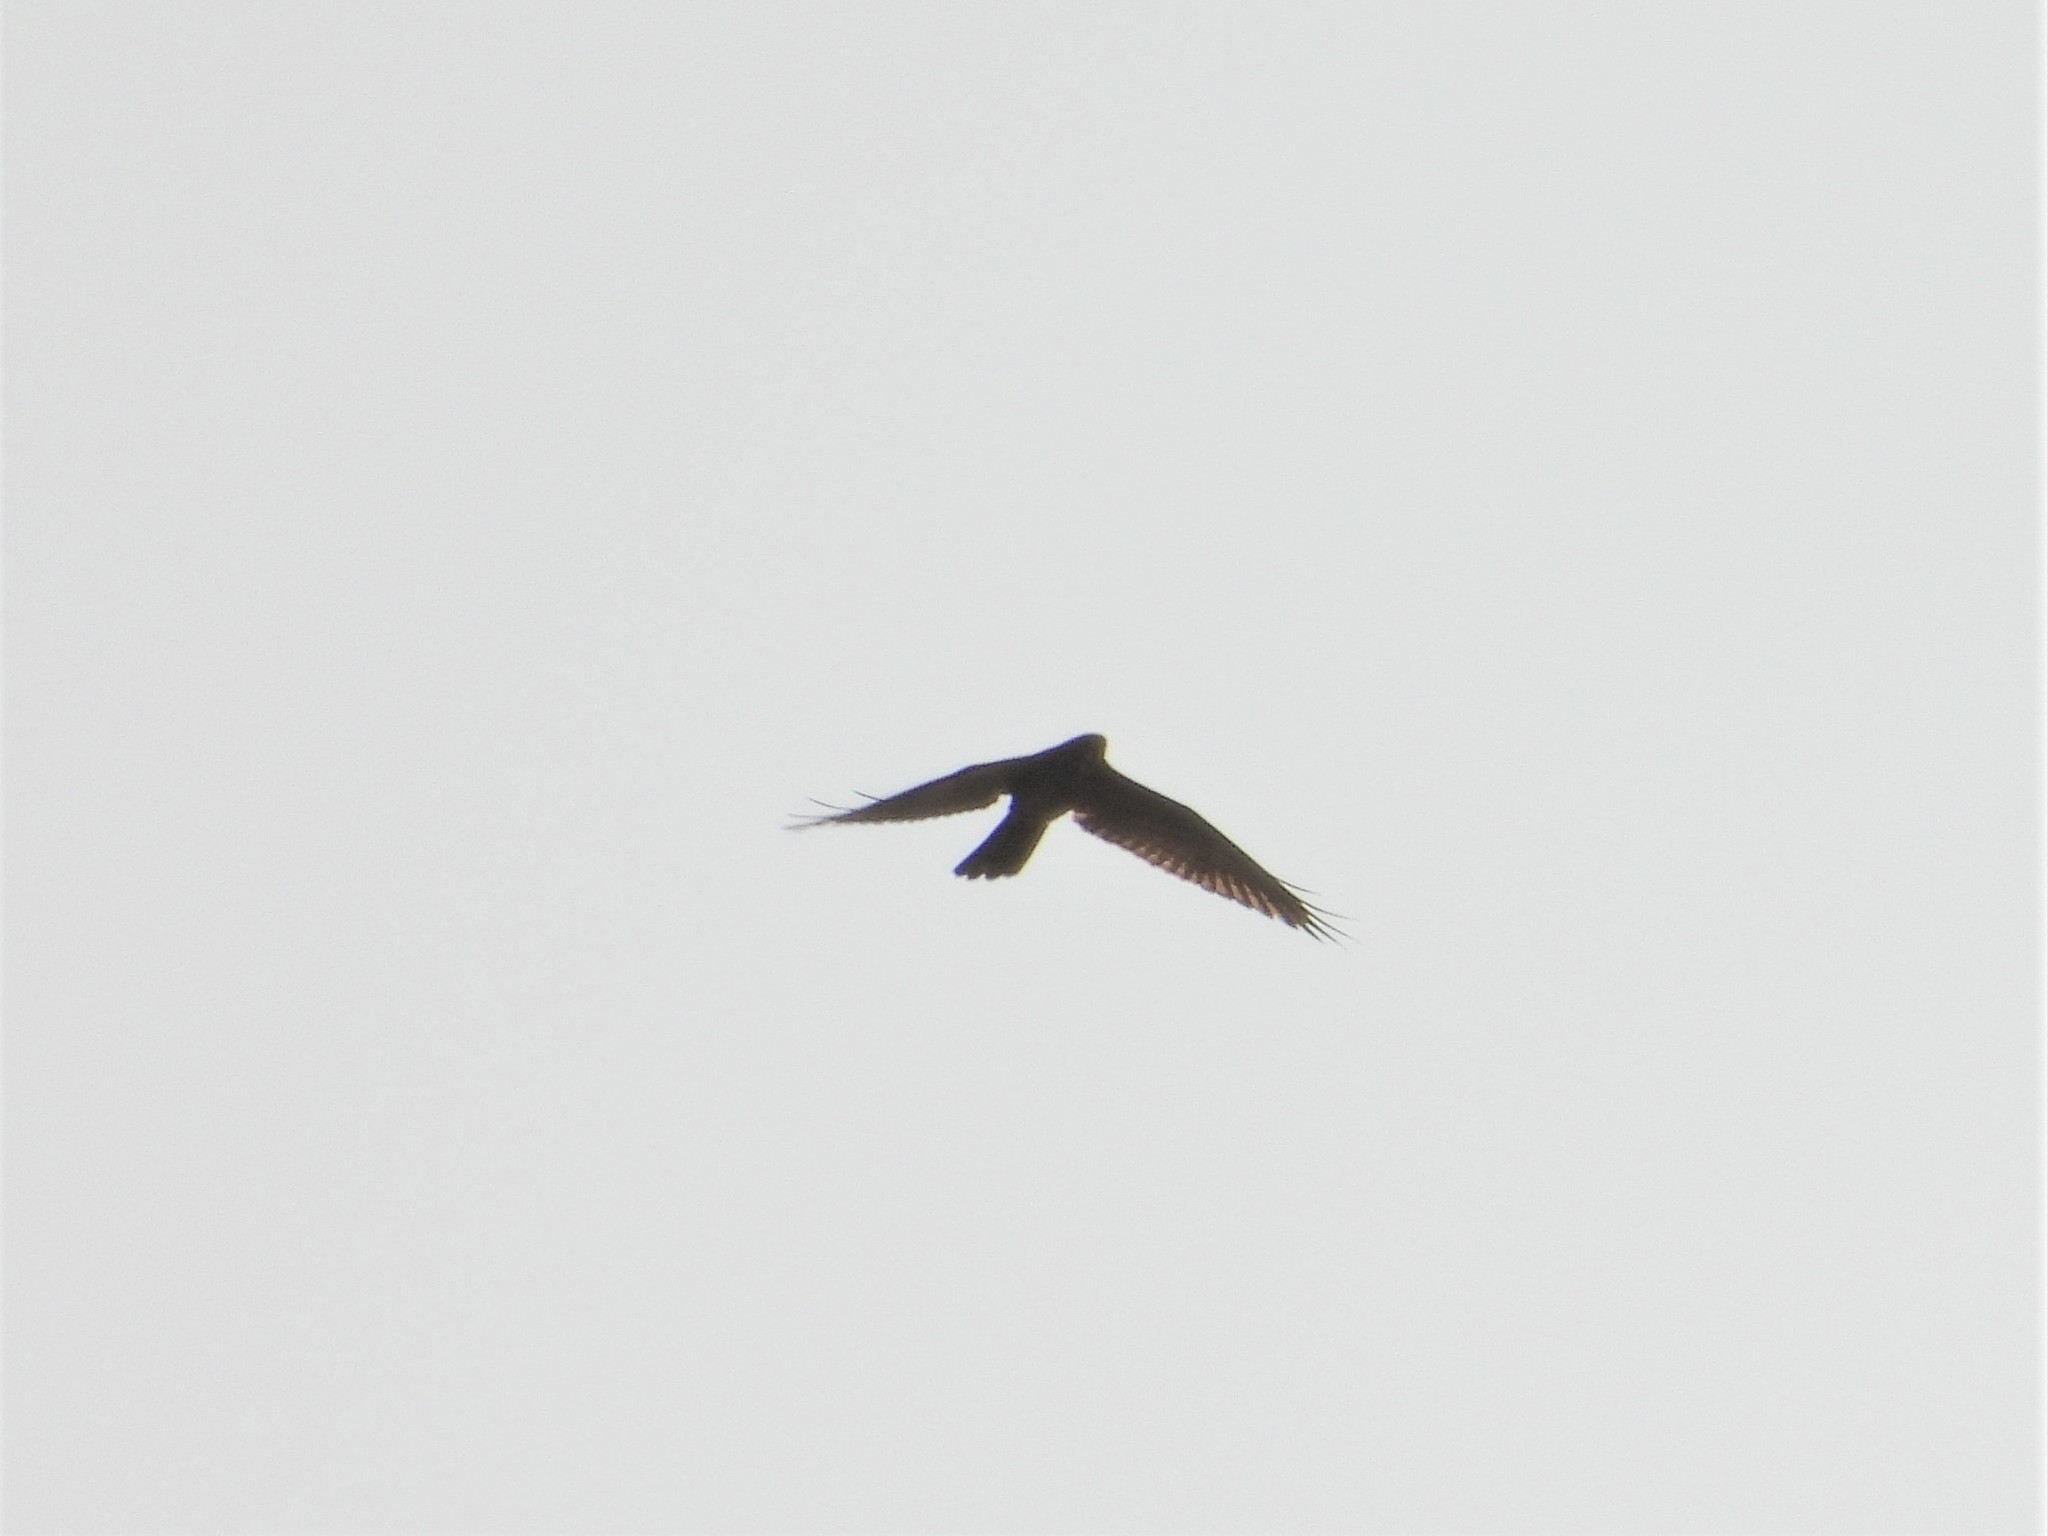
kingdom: Animalia
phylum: Chordata
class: Aves
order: Accipitriformes
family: Accipitridae
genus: Butastur
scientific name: Butastur indicus
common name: Grey-faced buzzard
